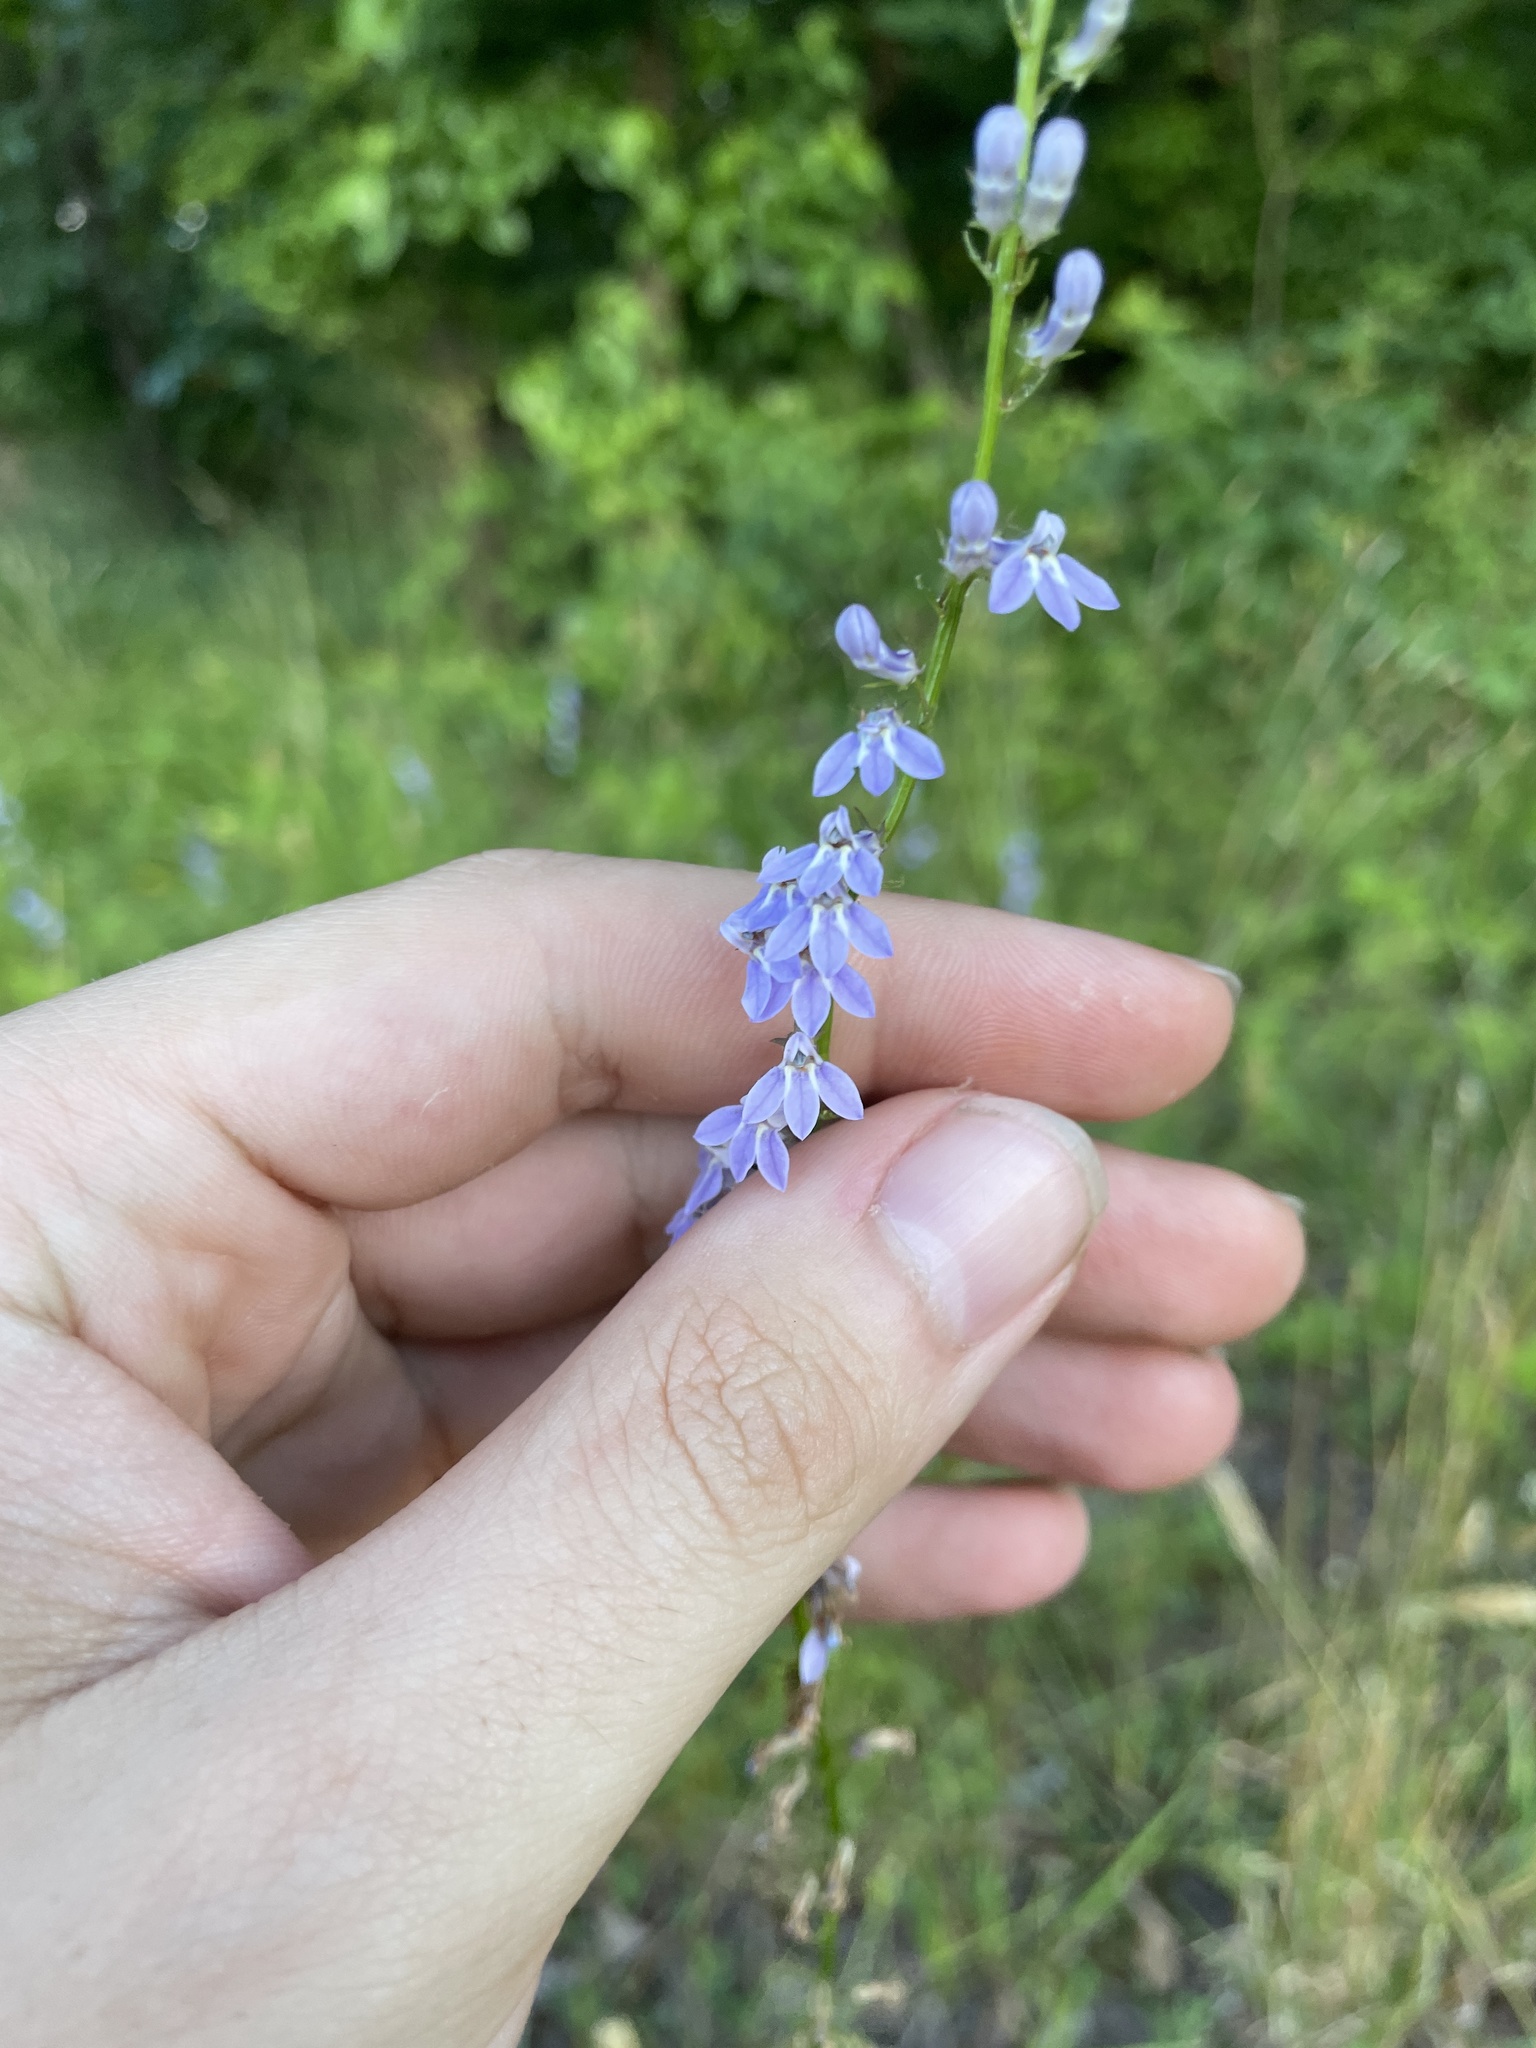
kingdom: Plantae
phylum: Tracheophyta
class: Magnoliopsida
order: Asterales
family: Campanulaceae
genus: Lobelia
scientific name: Lobelia spicata
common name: Pale-spike lobelia
